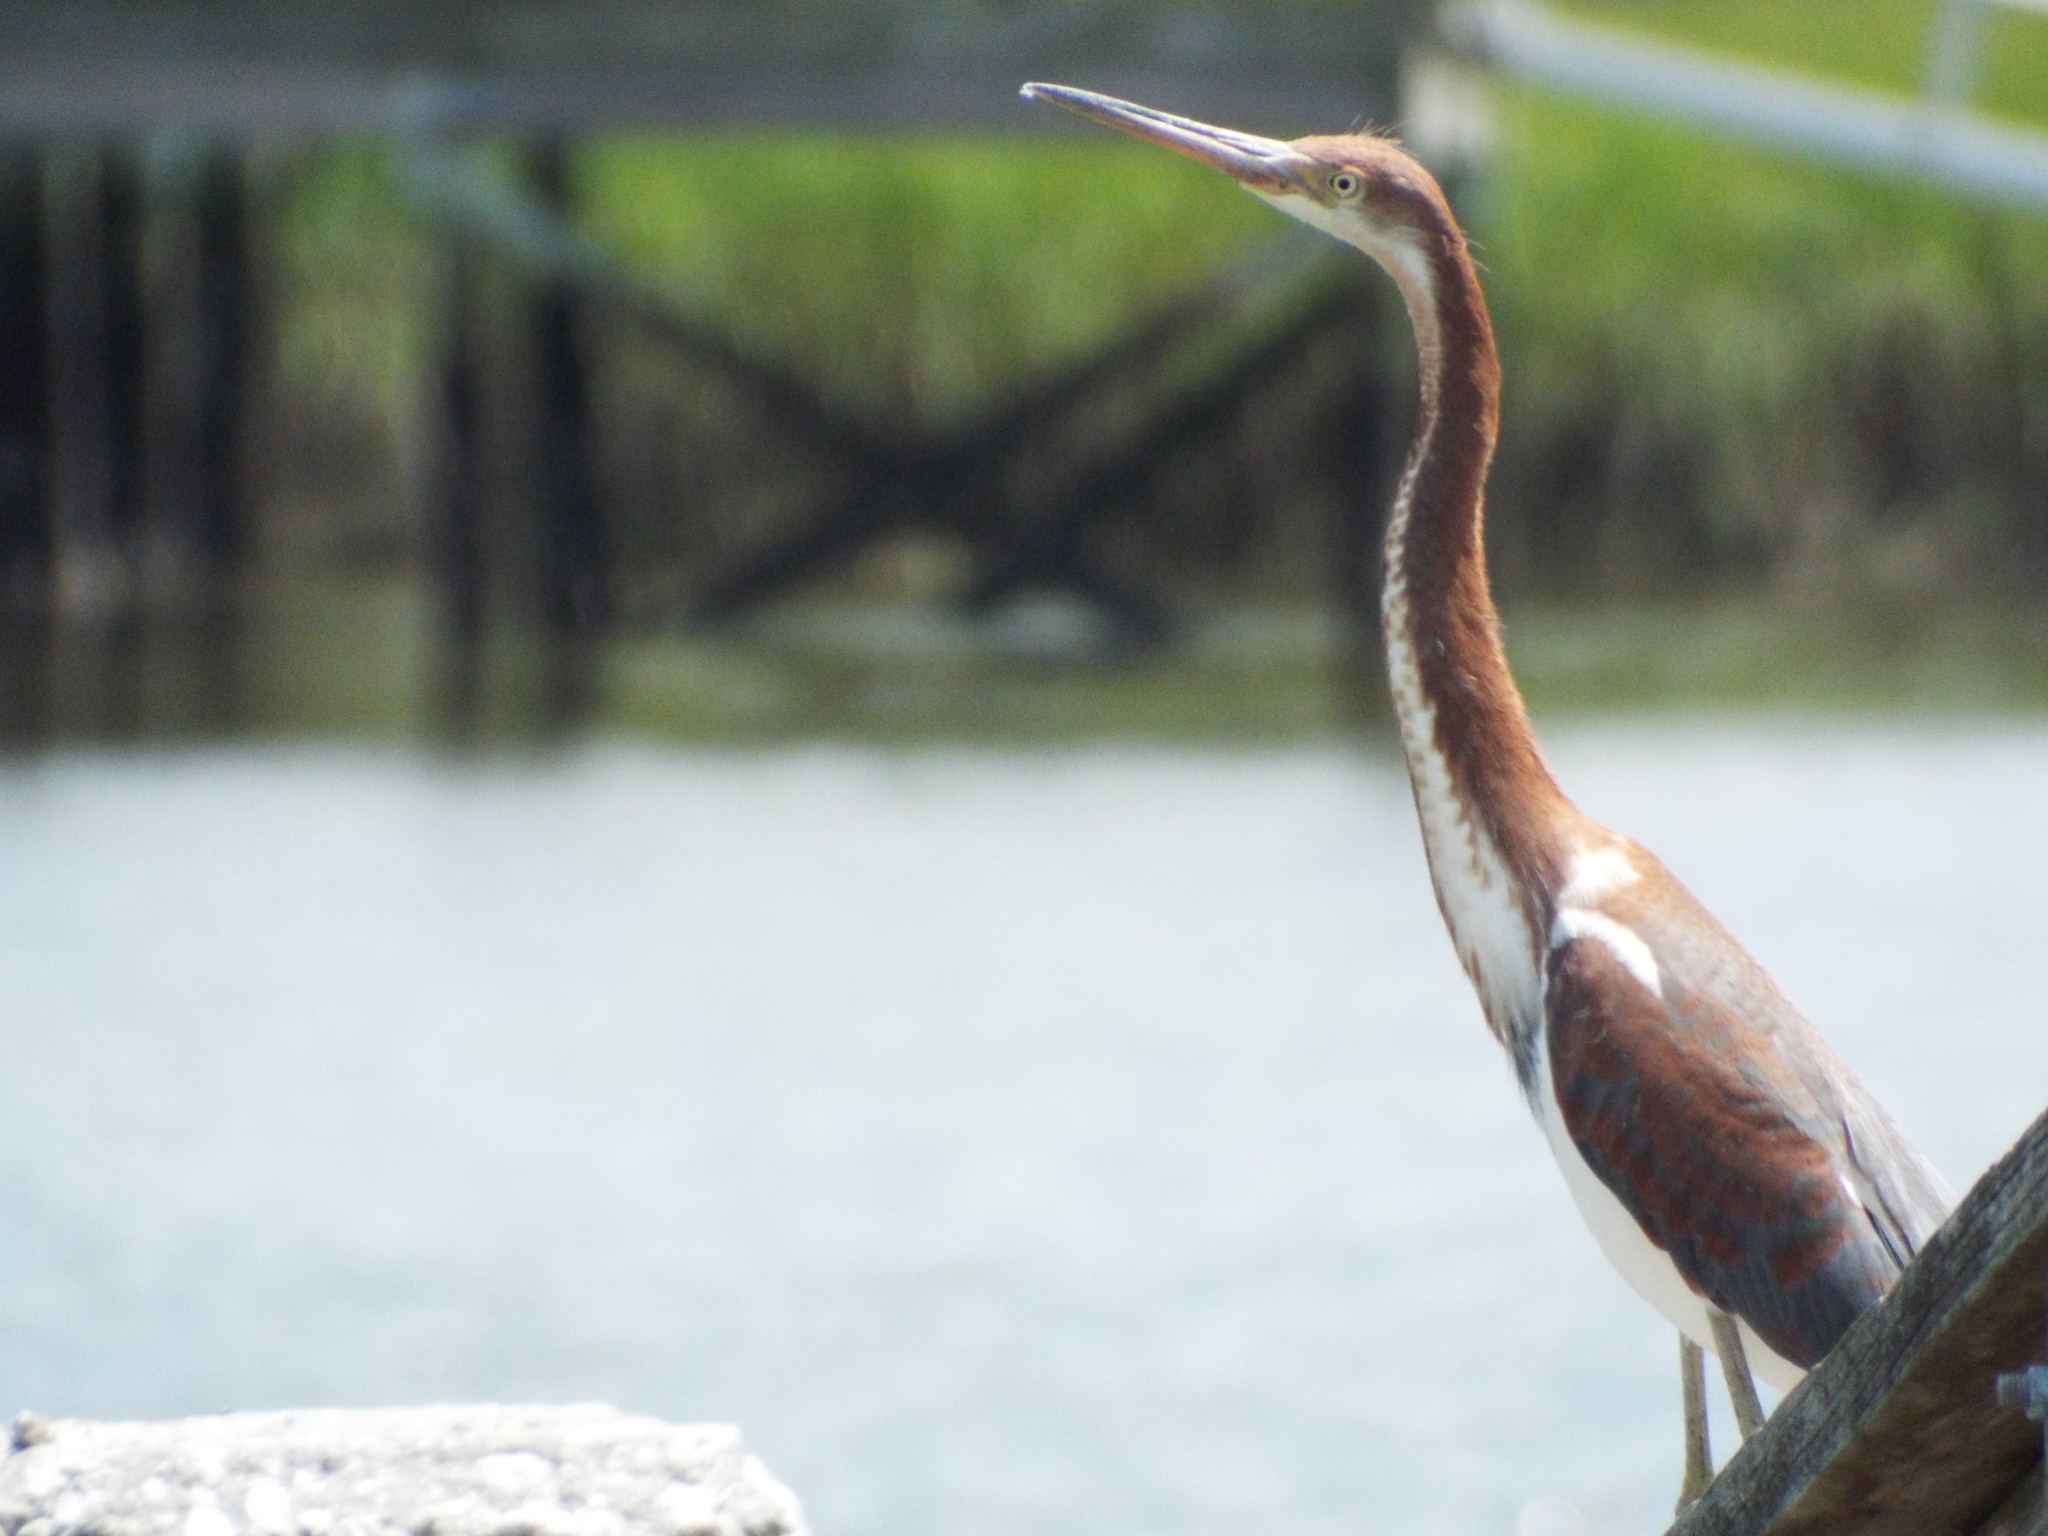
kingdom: Animalia
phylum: Chordata
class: Aves
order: Pelecaniformes
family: Ardeidae
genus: Egretta
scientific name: Egretta tricolor
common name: Tricolored heron
